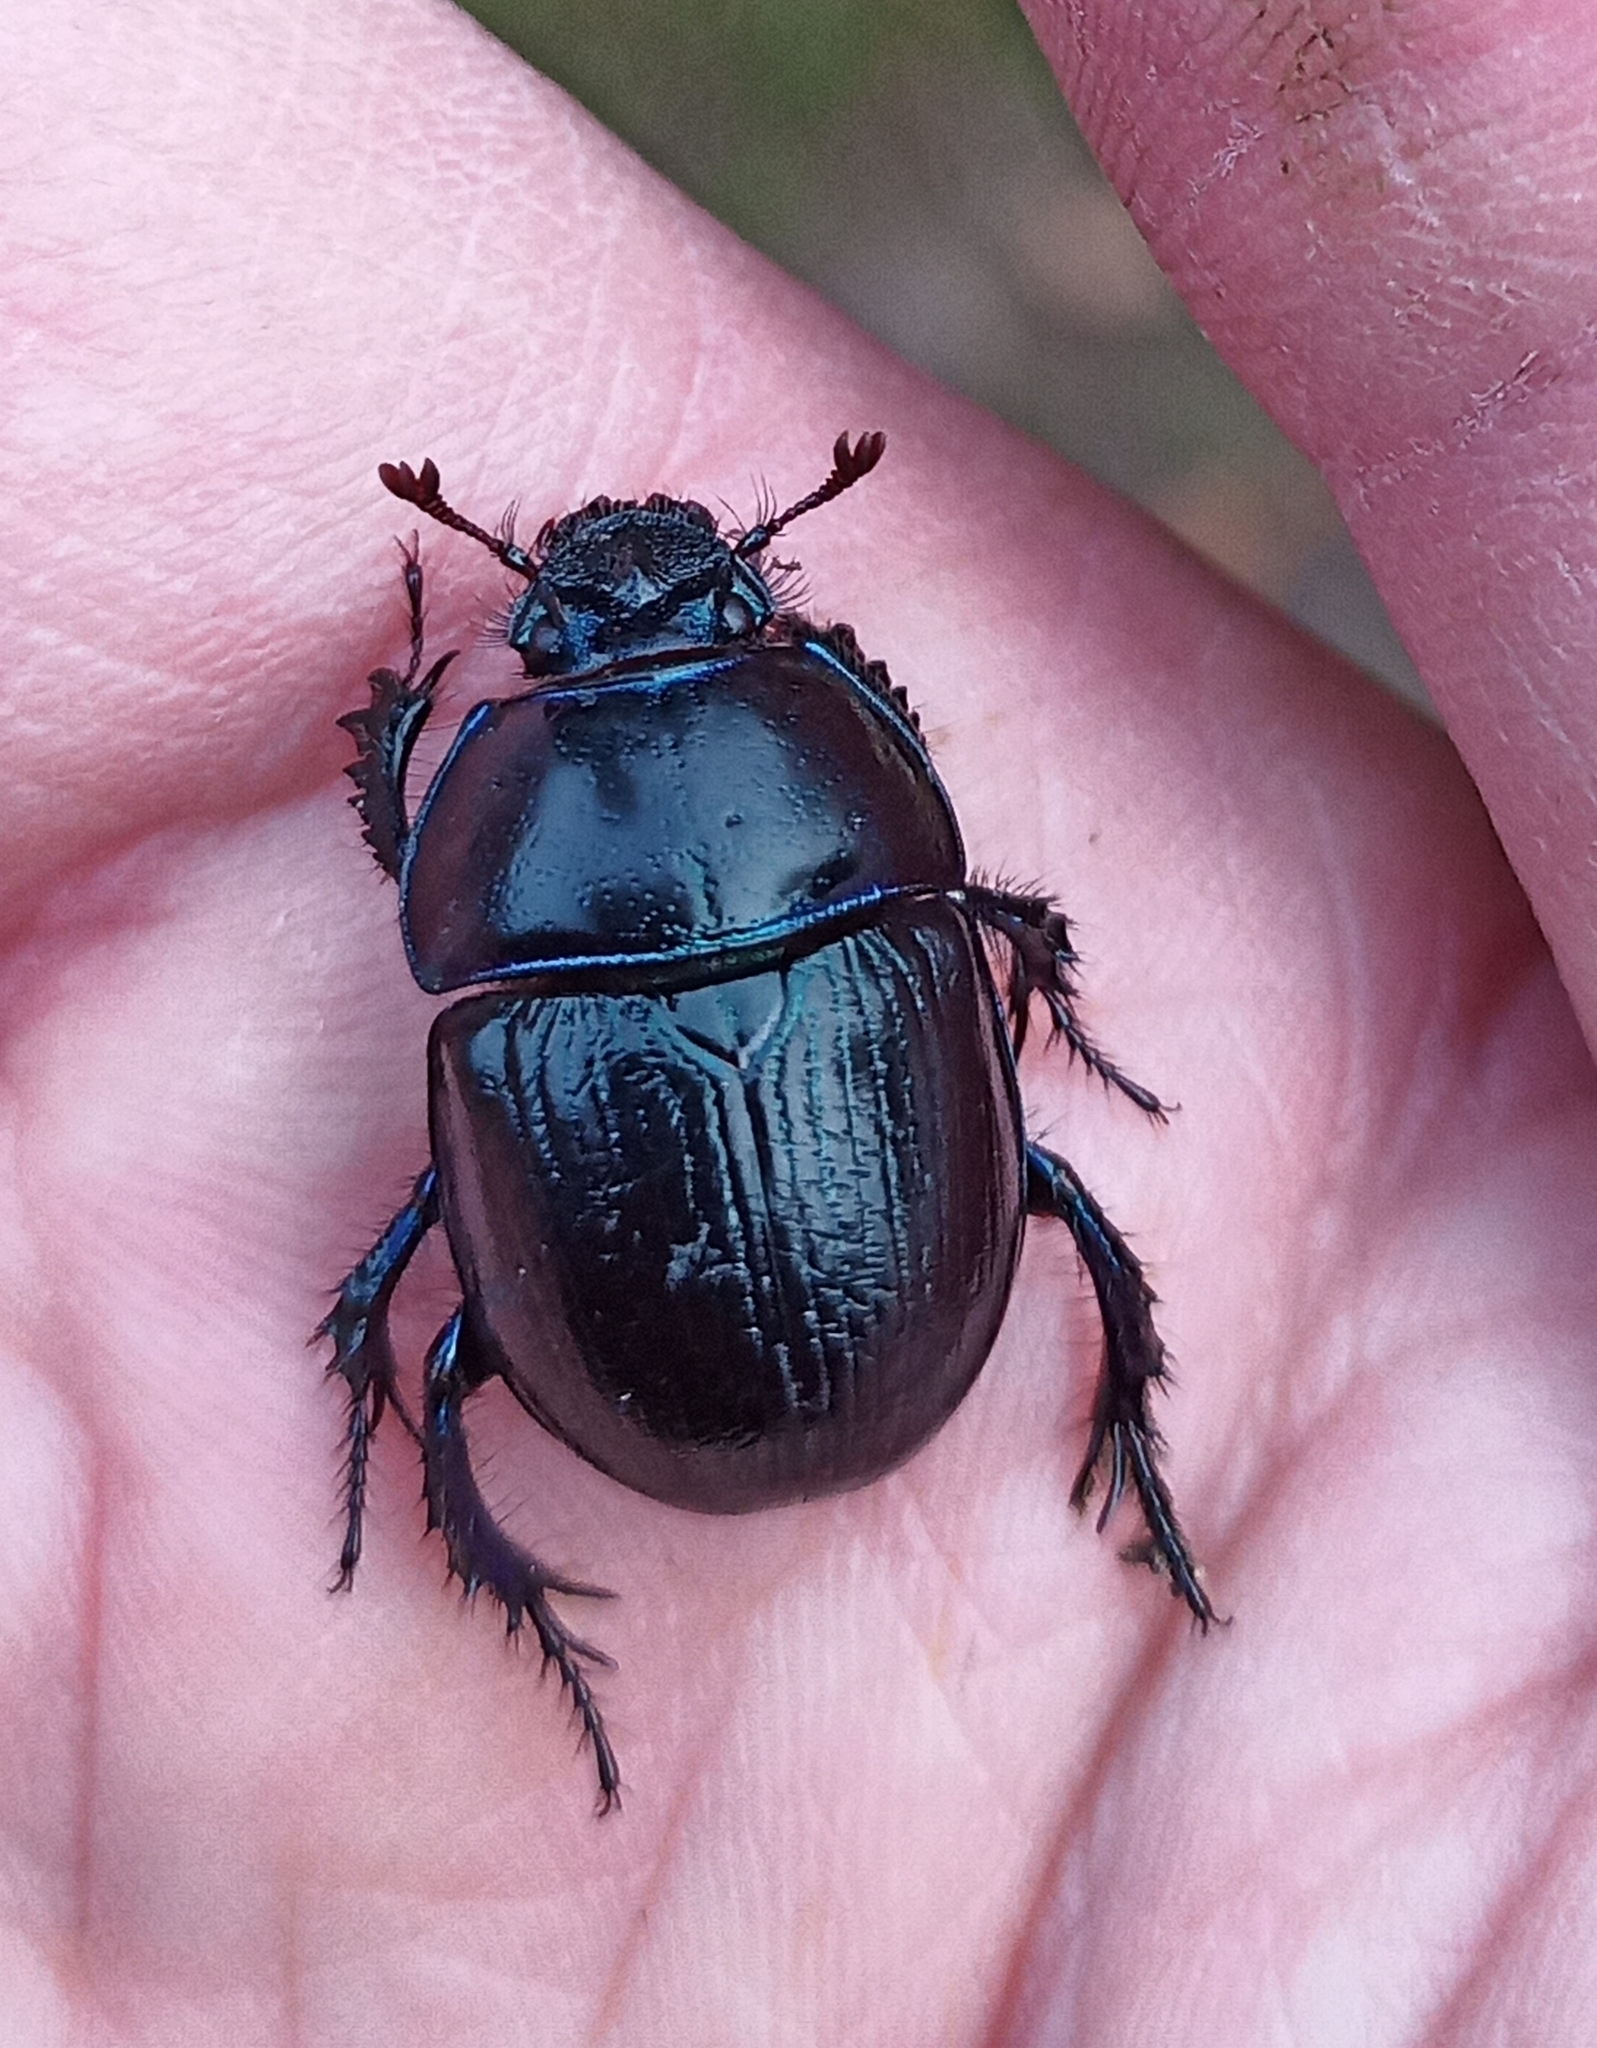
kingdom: Animalia
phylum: Arthropoda
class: Insecta
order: Coleoptera
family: Geotrupidae
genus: Anoplotrupes
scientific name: Anoplotrupes stercorosus
